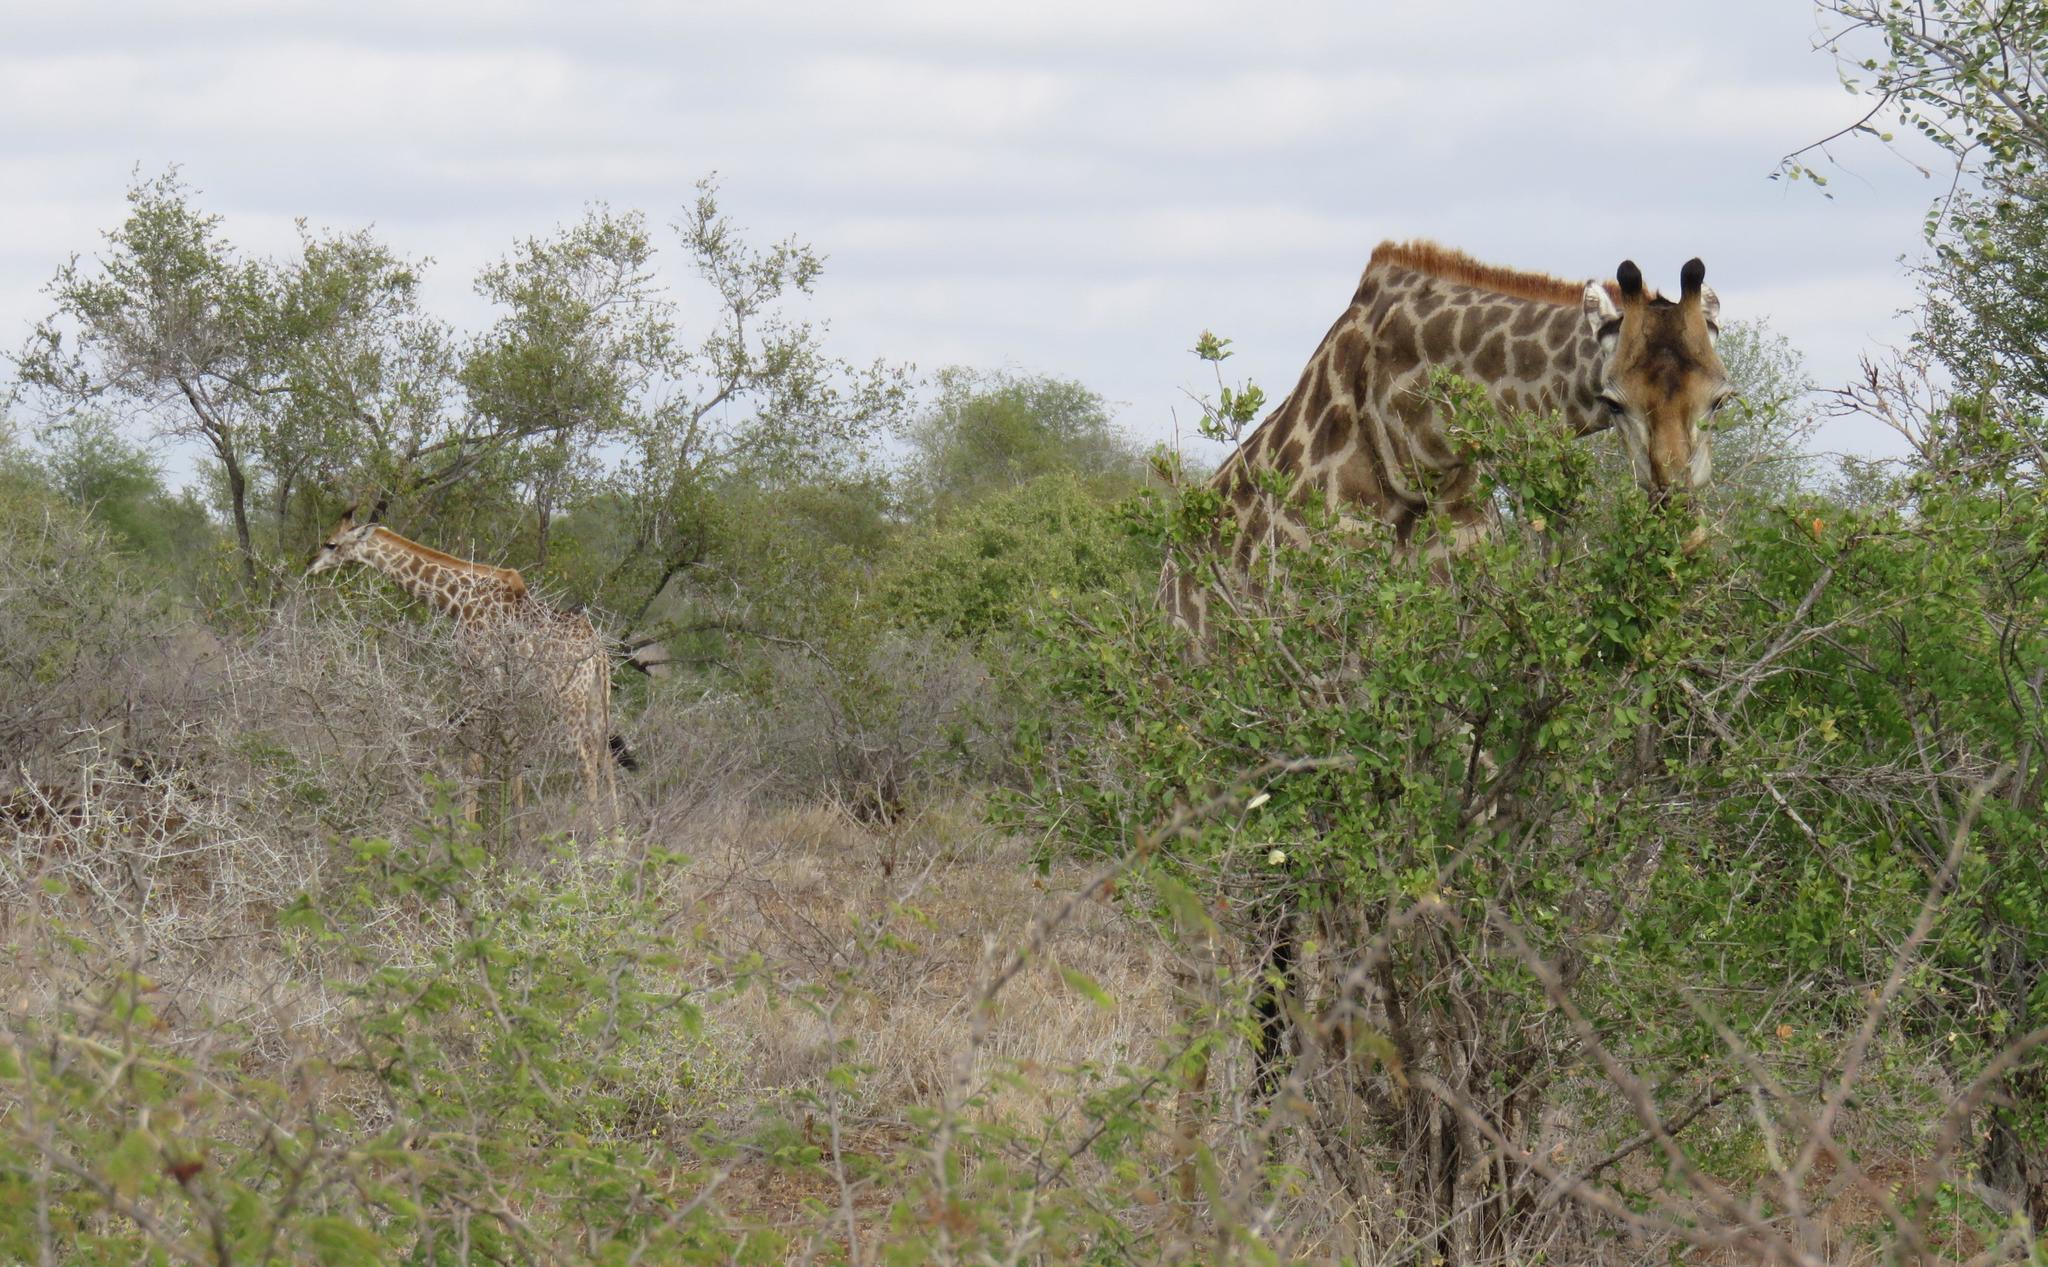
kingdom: Animalia
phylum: Chordata
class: Mammalia
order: Artiodactyla
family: Giraffidae
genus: Giraffa
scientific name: Giraffa giraffa
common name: Southern giraffe
